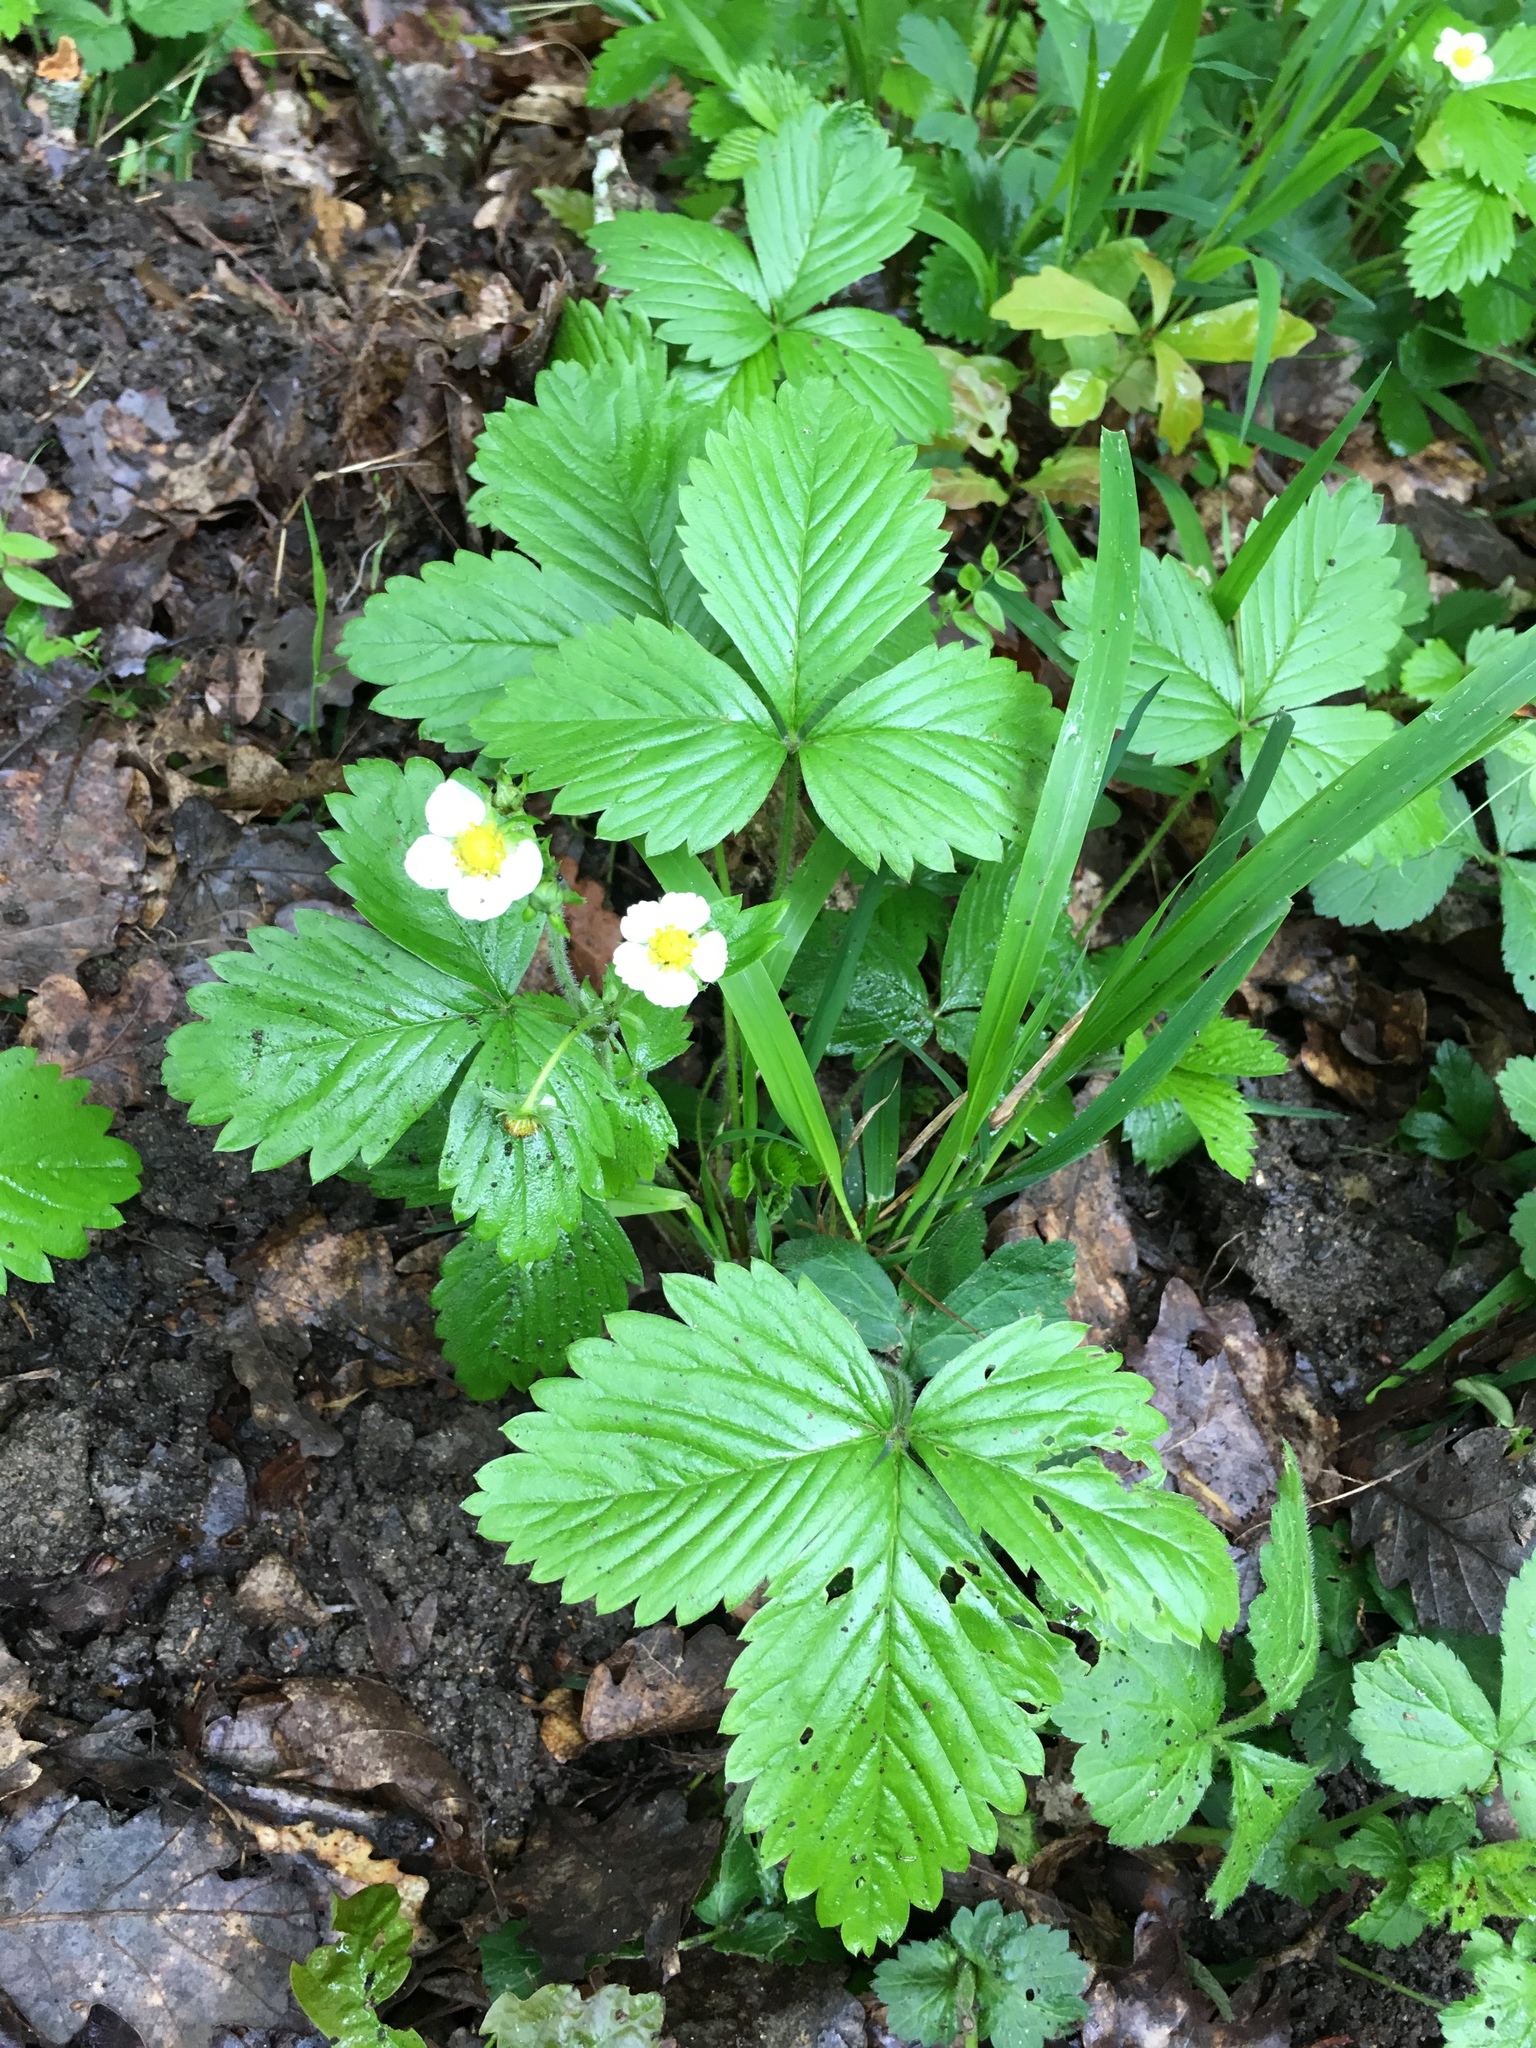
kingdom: Plantae
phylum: Tracheophyta
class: Magnoliopsida
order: Rosales
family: Rosaceae
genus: Fragaria
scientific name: Fragaria vesca
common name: Wild strawberry
